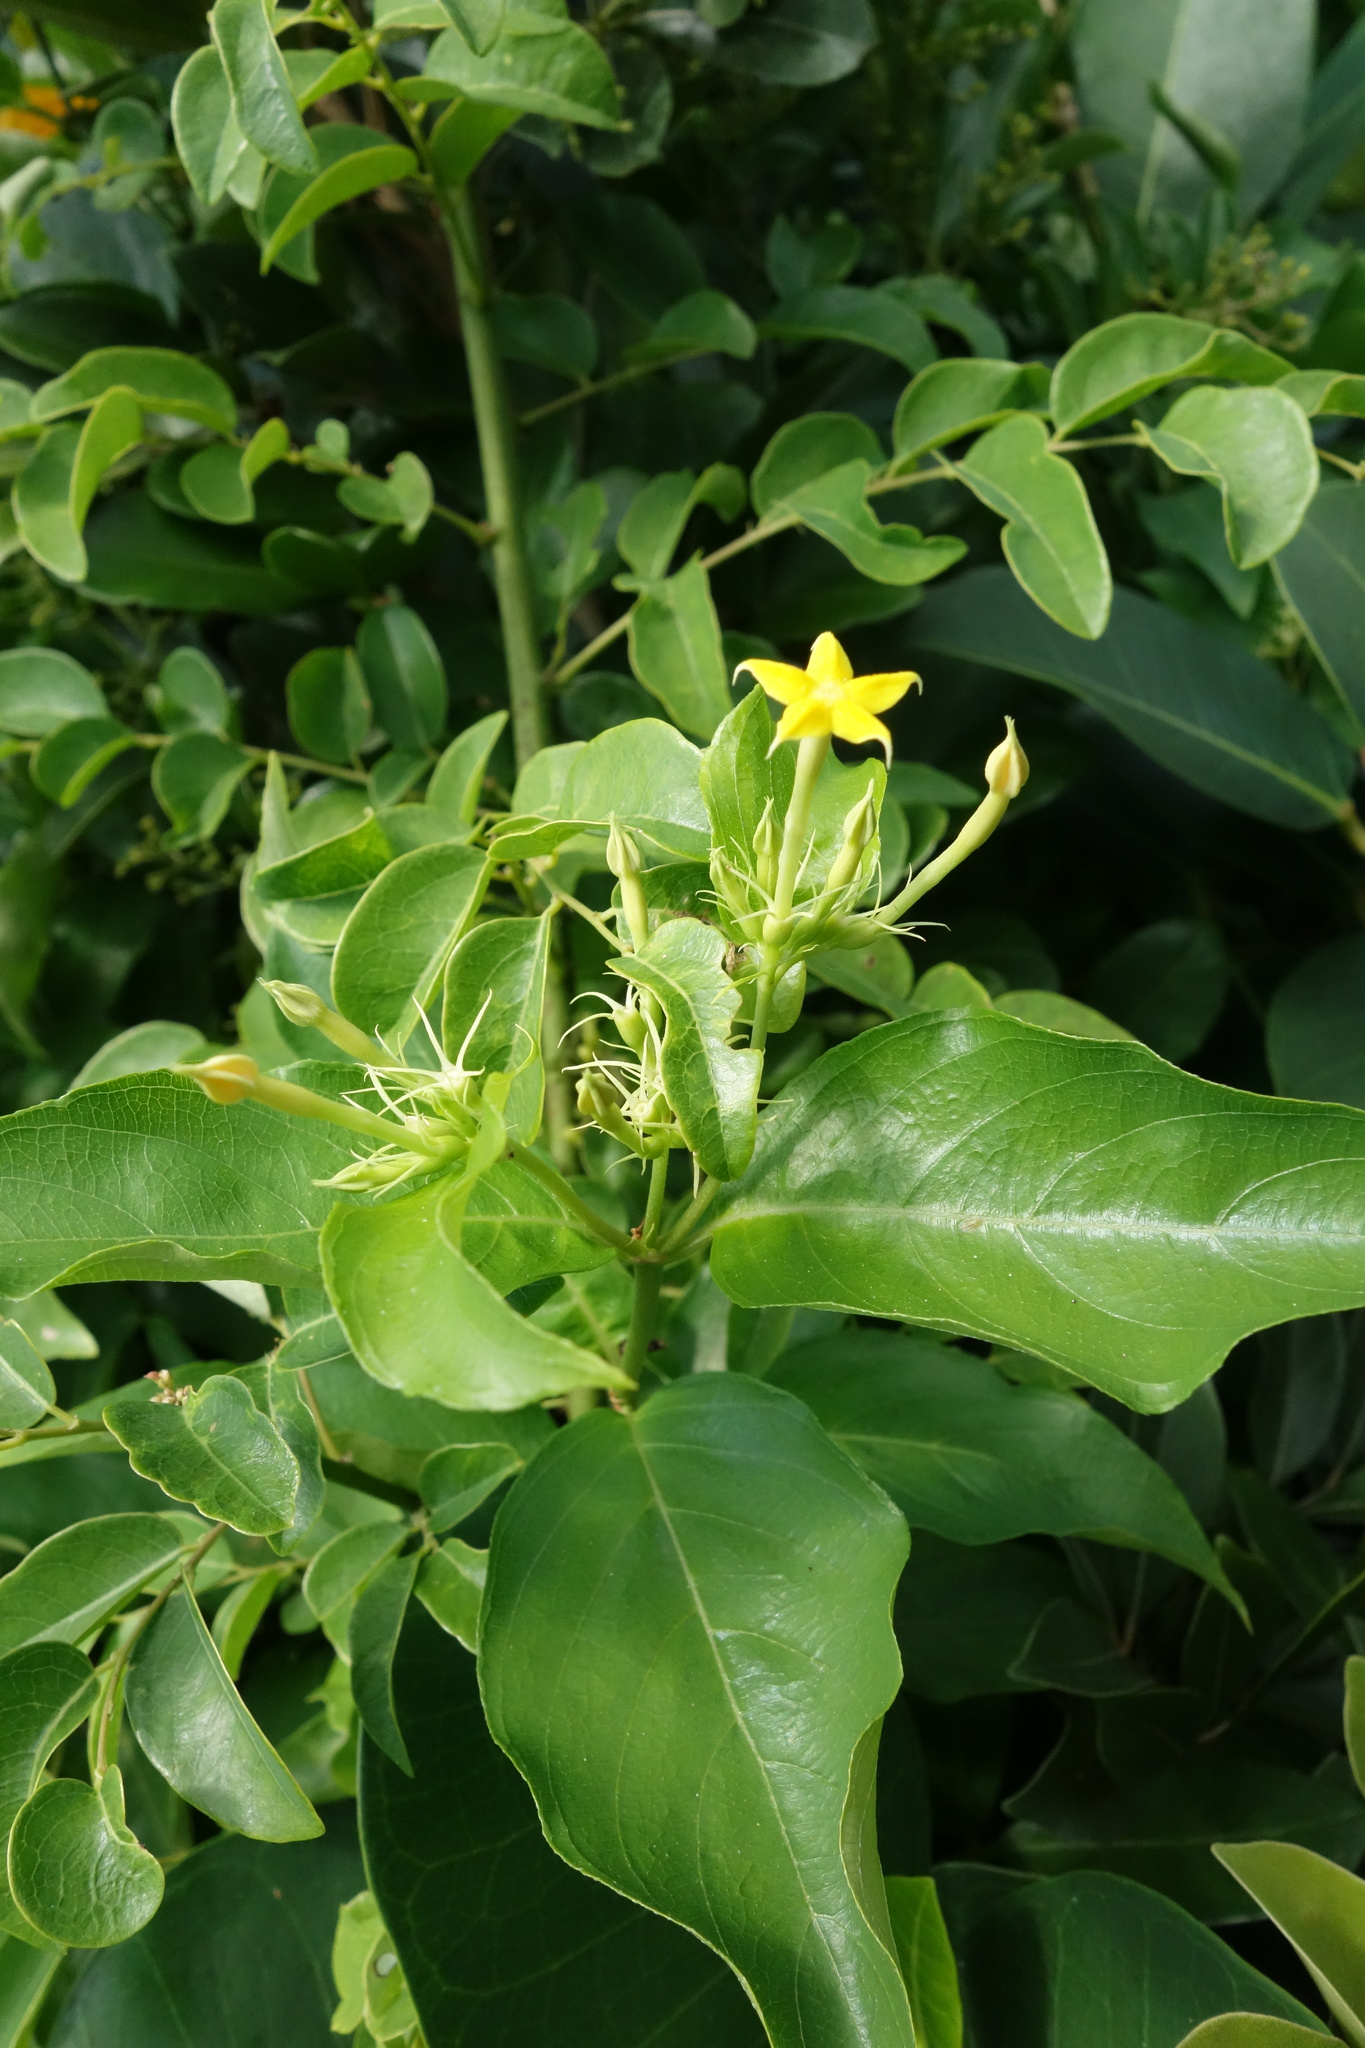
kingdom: Plantae
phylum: Tracheophyta
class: Magnoliopsida
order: Gentianales
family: Rubiaceae
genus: Mussaenda
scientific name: Mussaenda formosana
